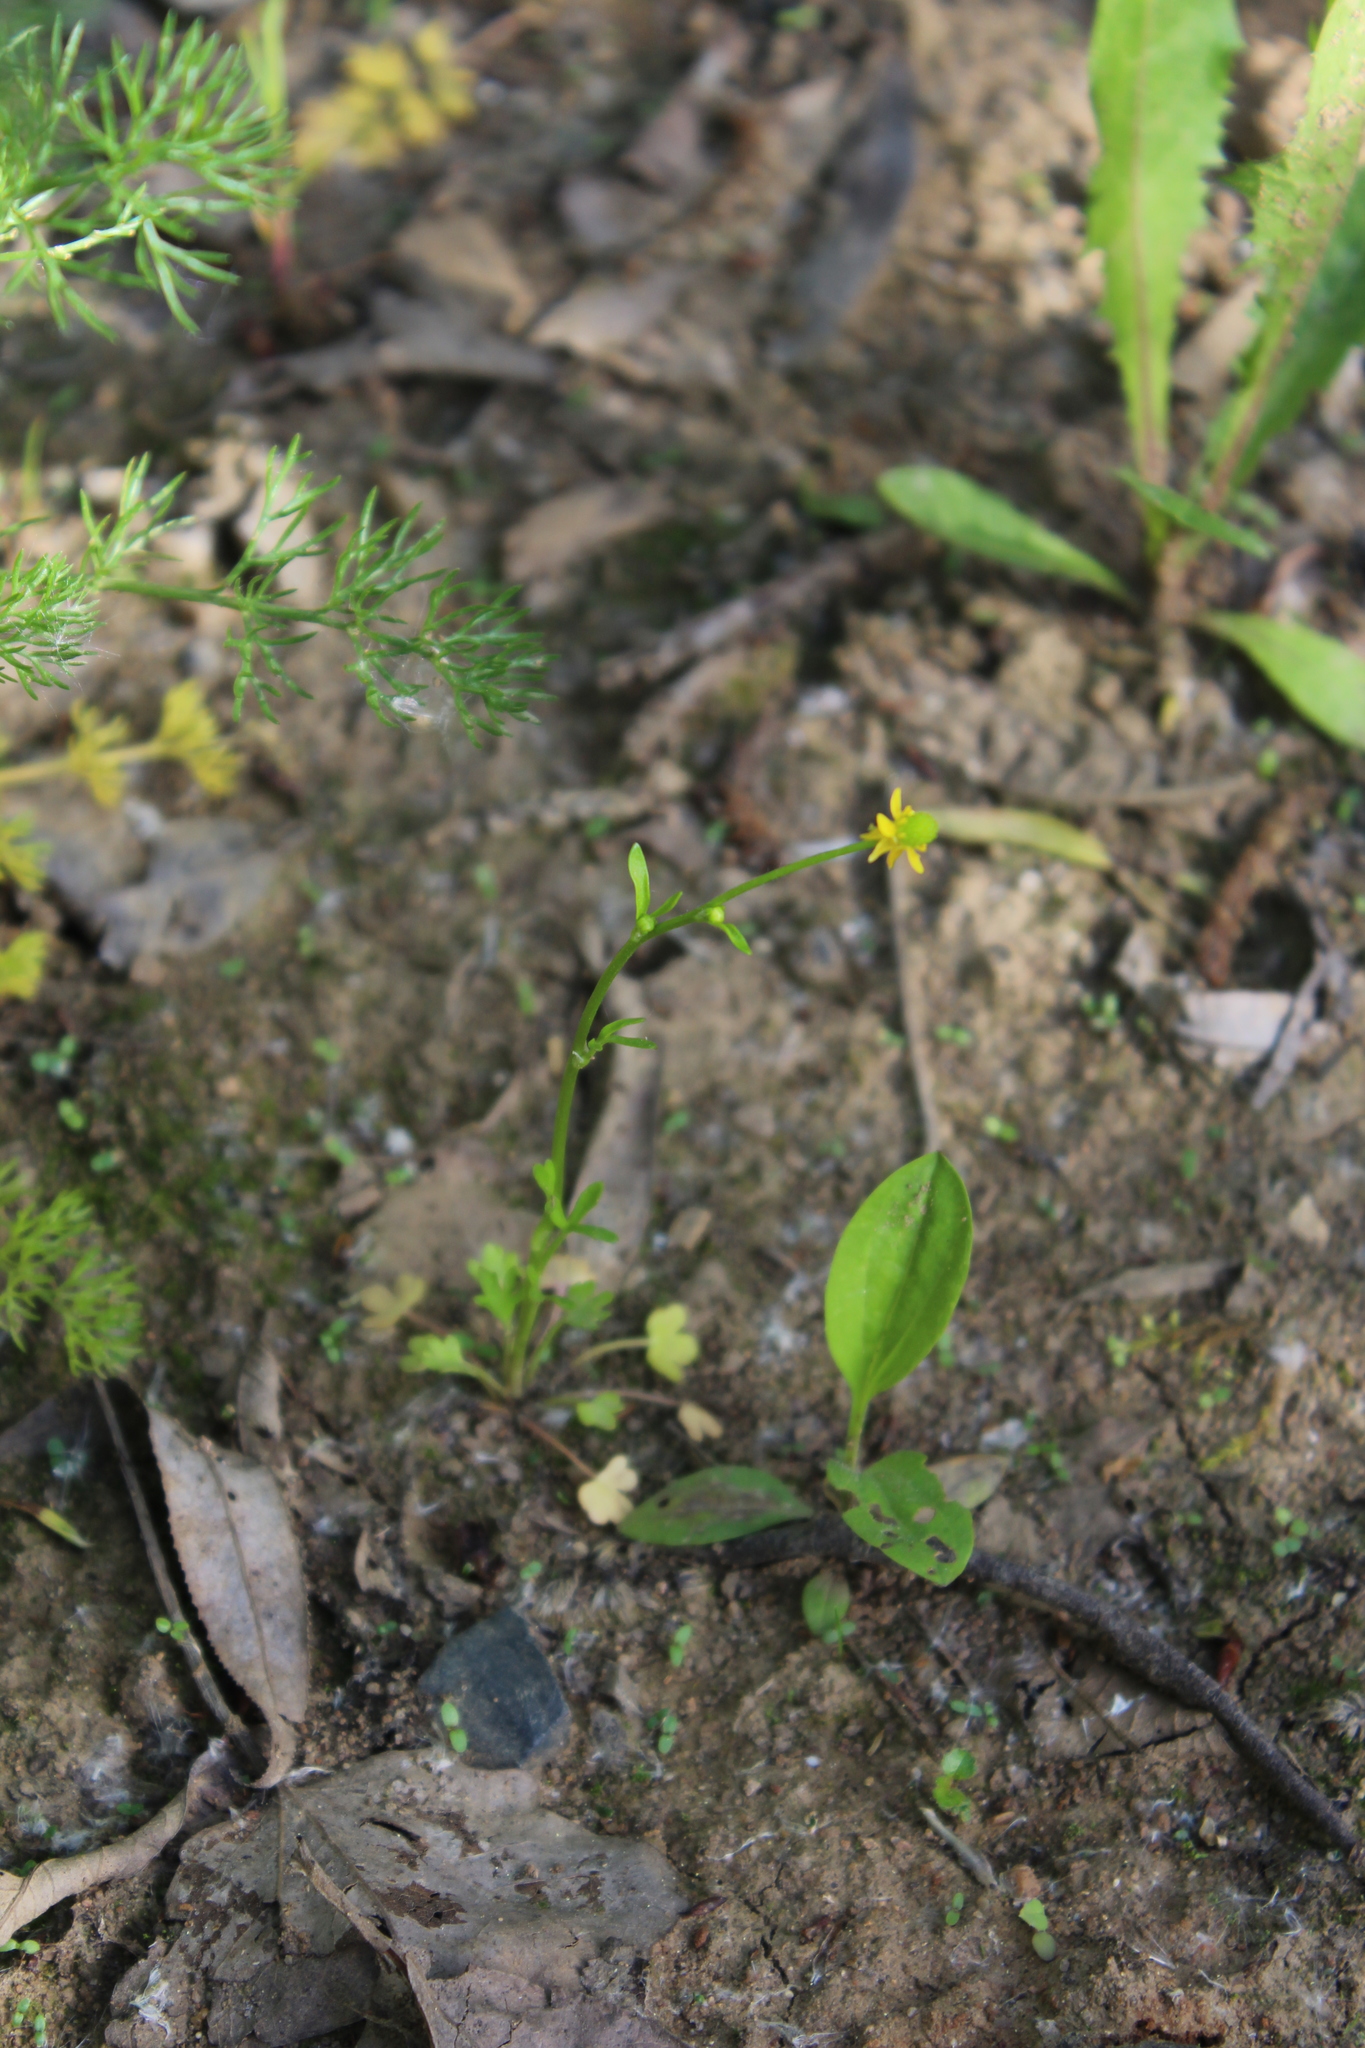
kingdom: Plantae
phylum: Tracheophyta
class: Magnoliopsida
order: Ranunculales
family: Ranunculaceae
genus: Ranunculus
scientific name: Ranunculus sceleratus
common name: Celery-leaved buttercup
